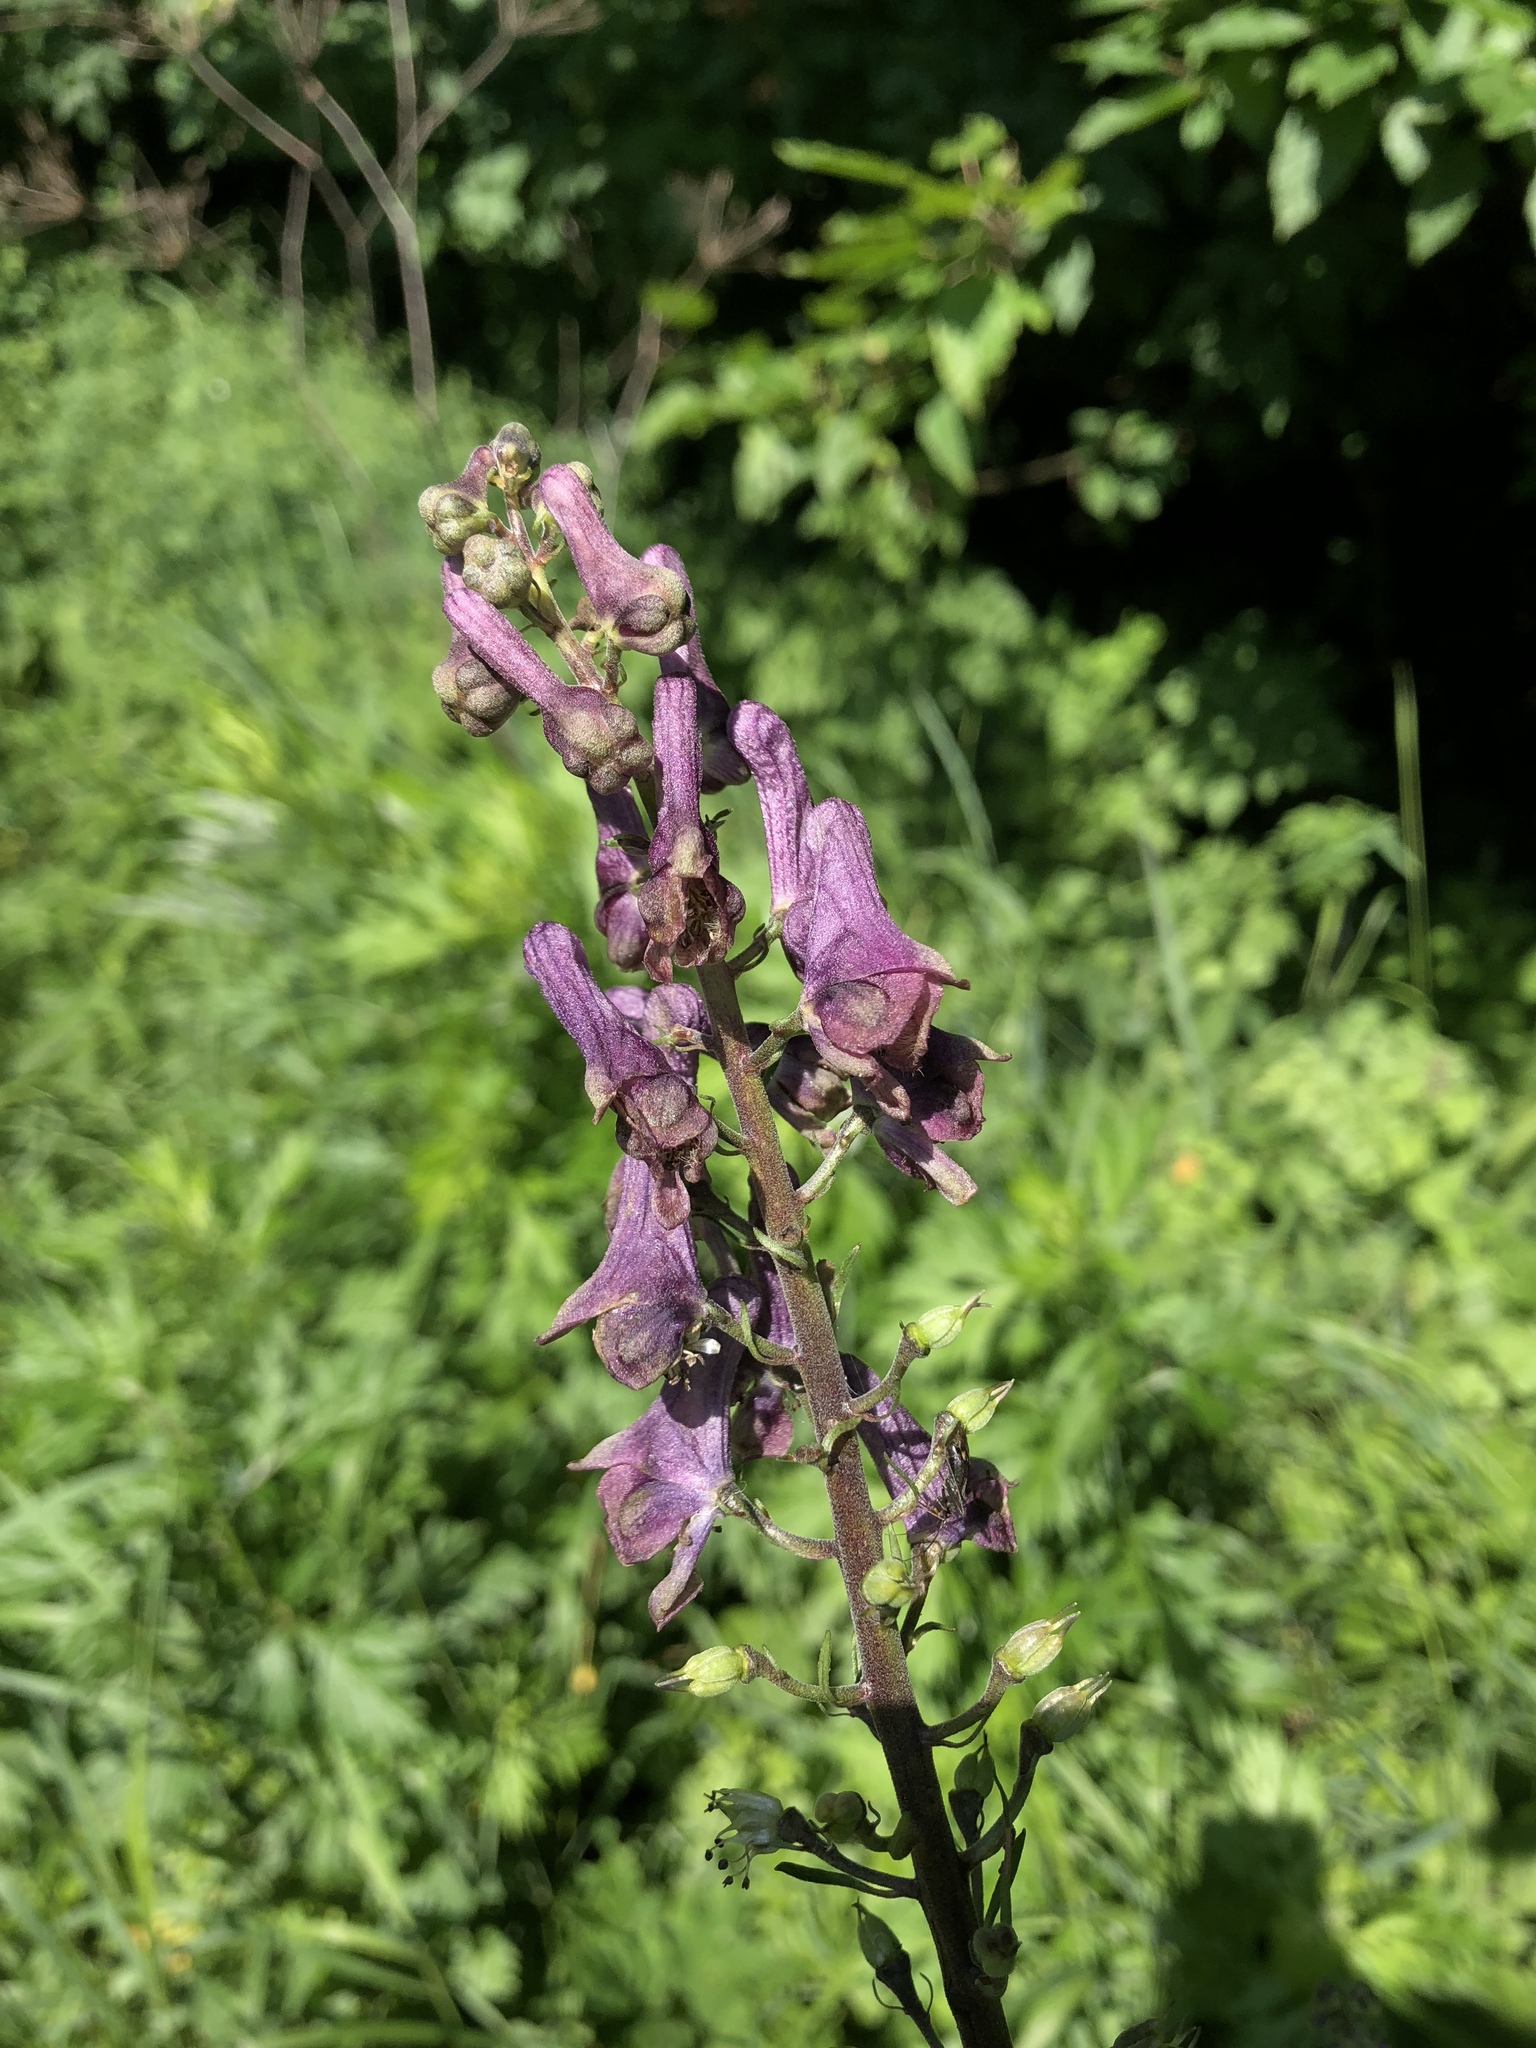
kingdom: Plantae
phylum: Tracheophyta
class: Magnoliopsida
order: Ranunculales
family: Ranunculaceae
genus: Aconitum
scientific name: Aconitum lycoctonum
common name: Wolf's-bane
